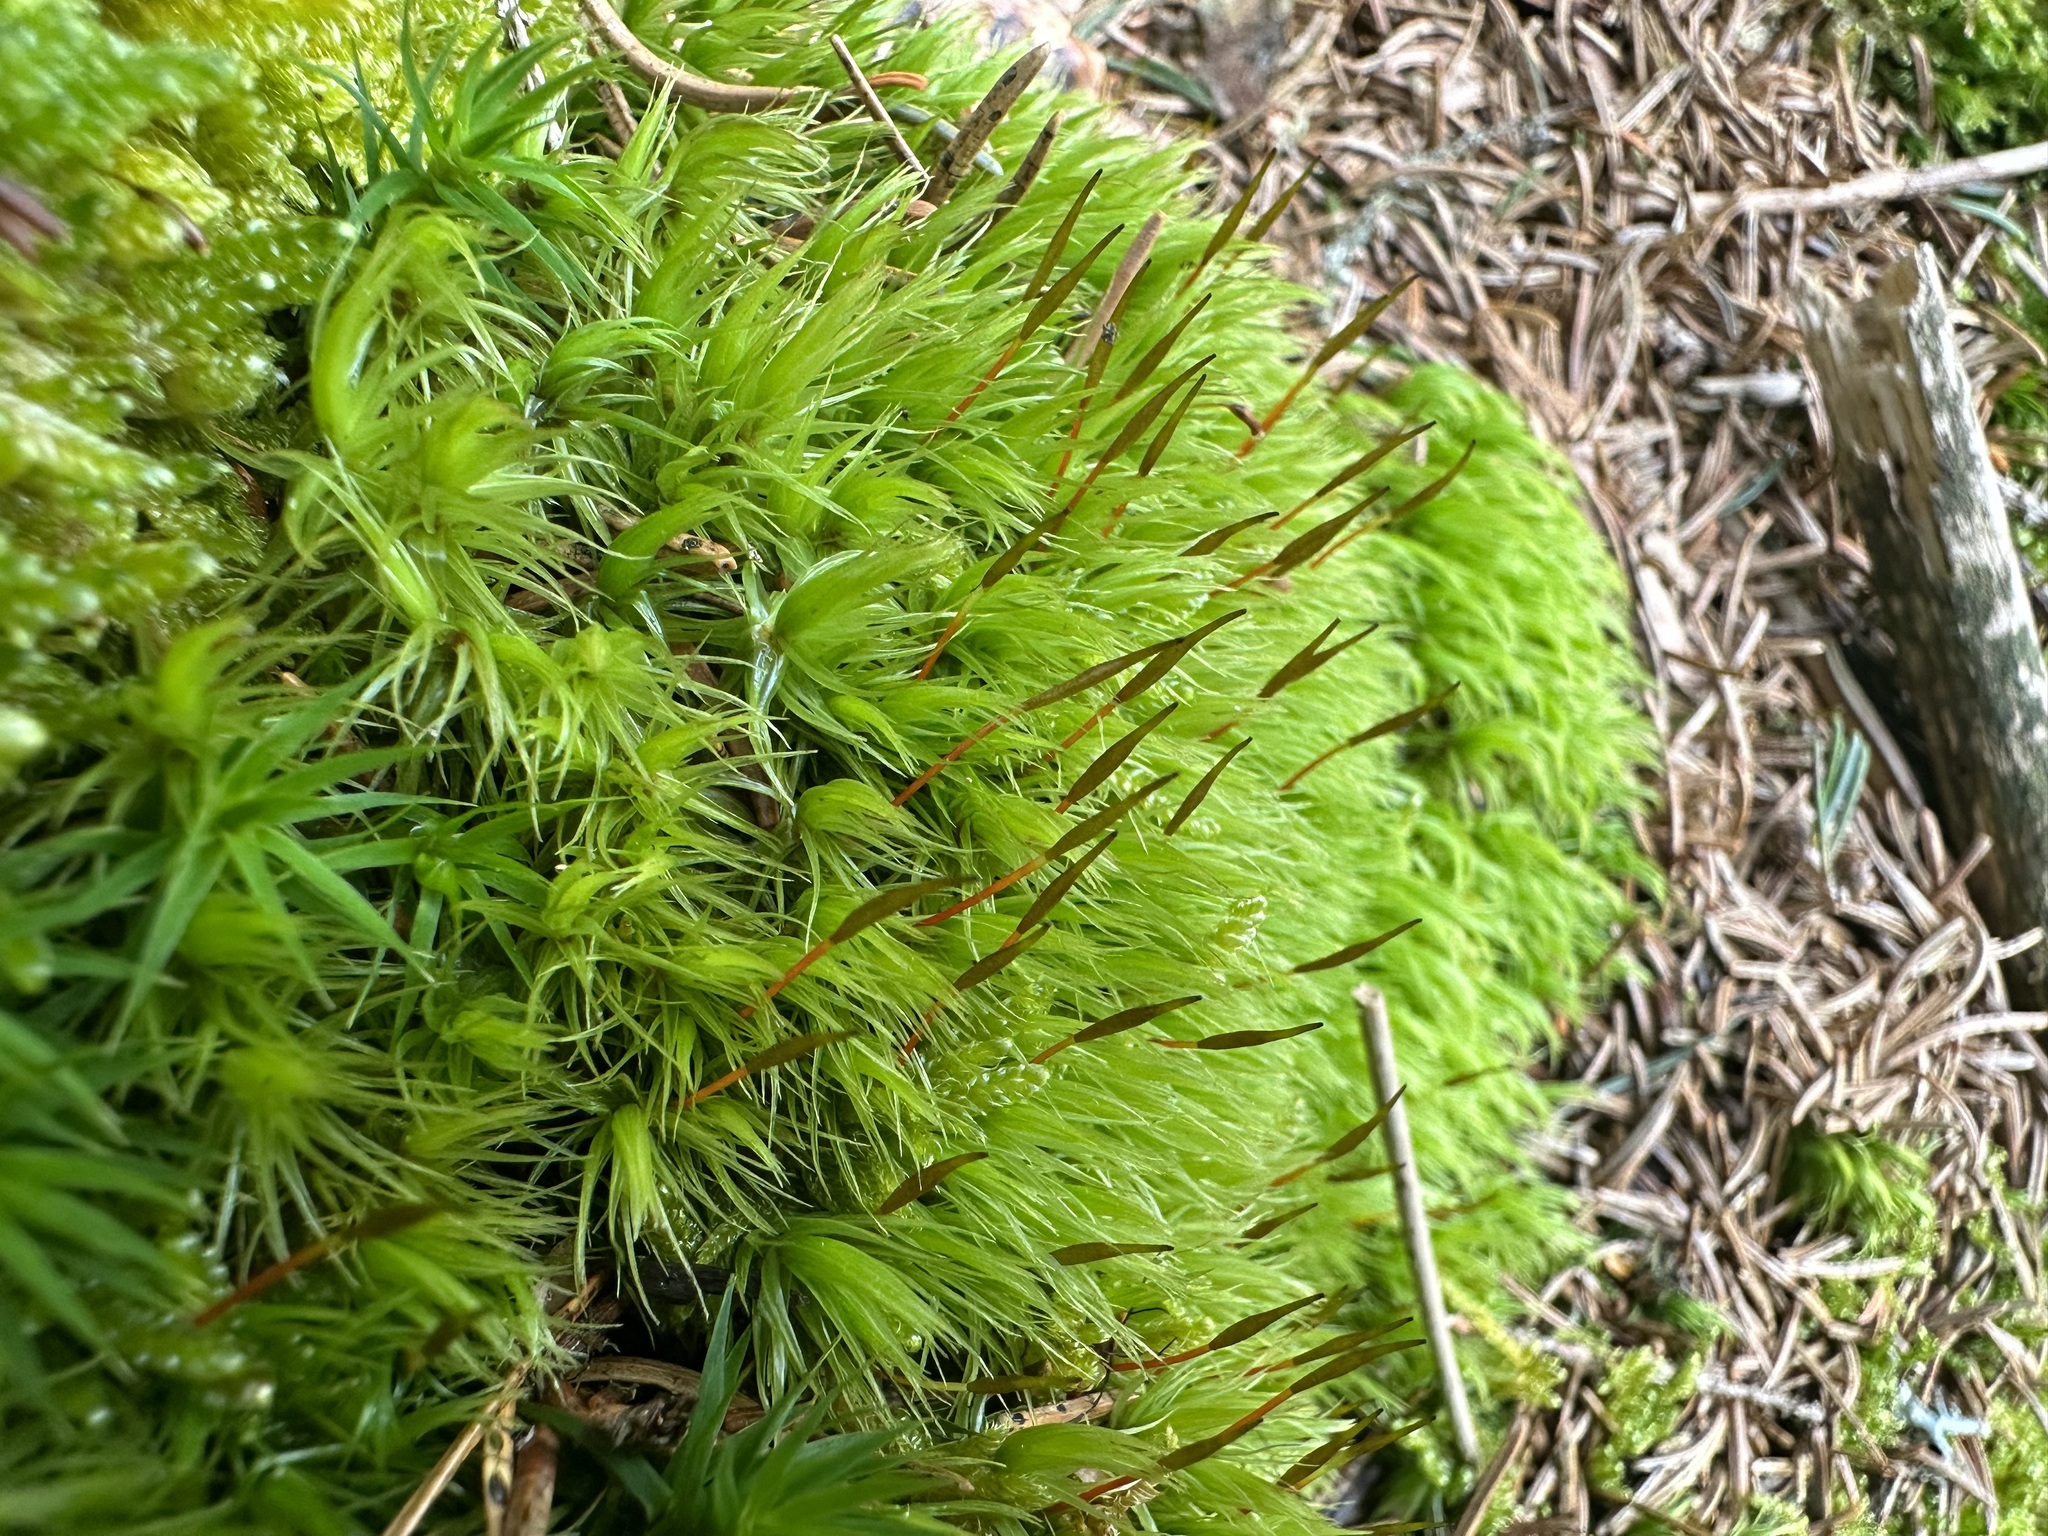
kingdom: Plantae
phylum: Bryophyta
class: Bryopsida
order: Dicranales
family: Dicranaceae
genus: Dicranum
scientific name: Dicranum scoparium
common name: Broom fork-moss
